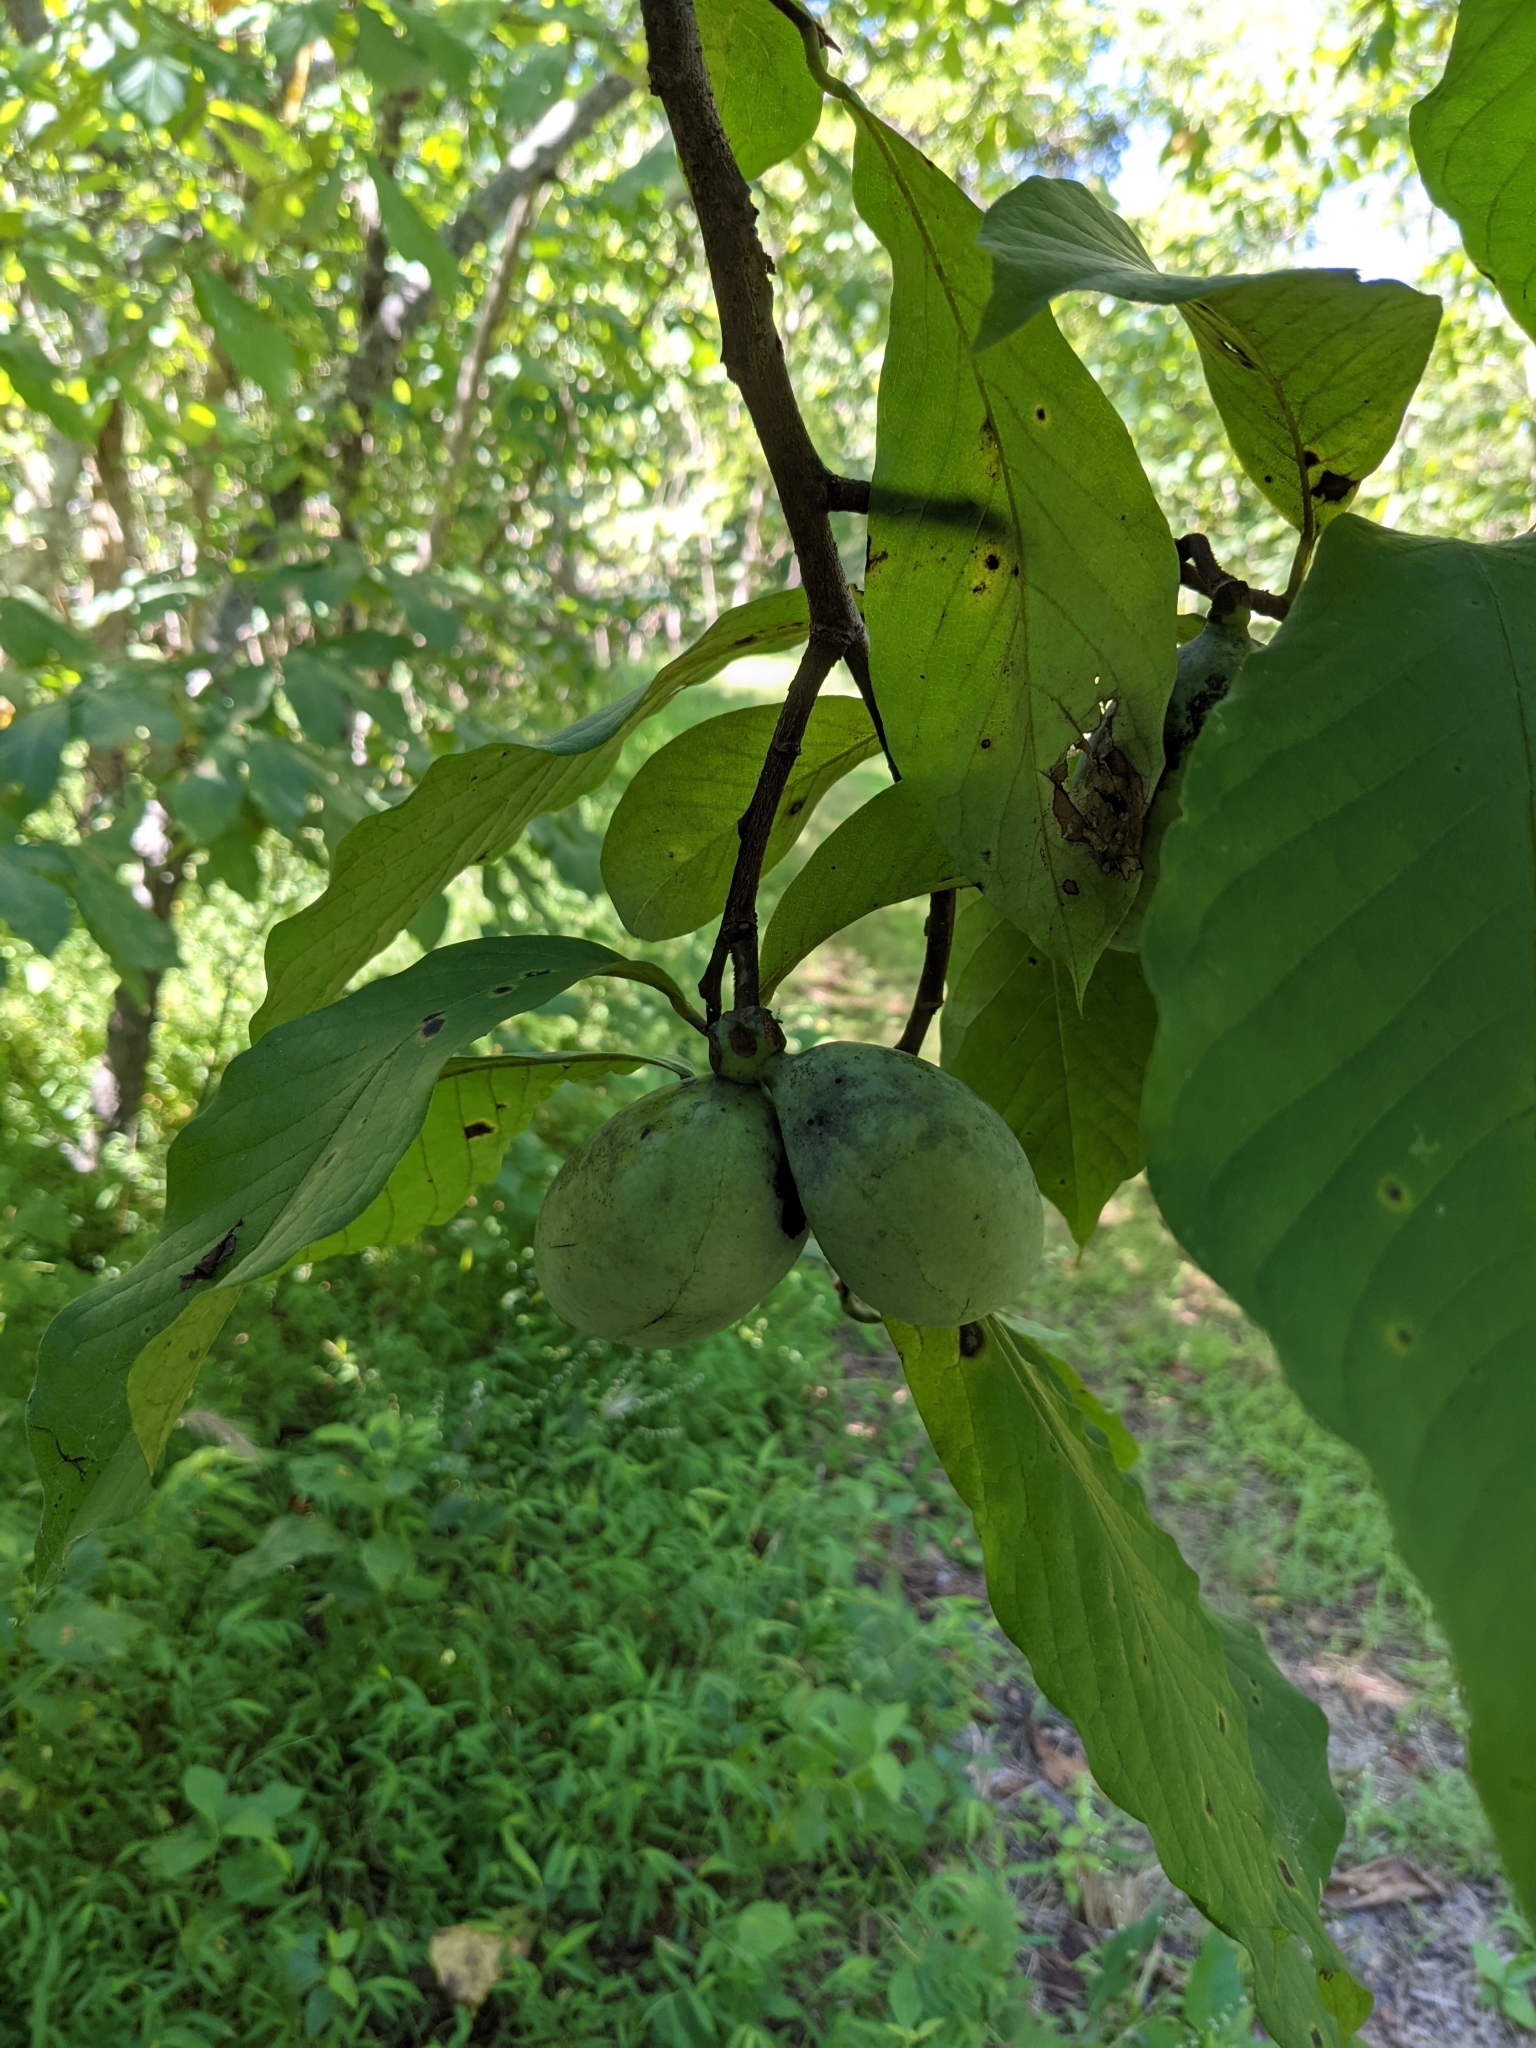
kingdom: Plantae
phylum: Tracheophyta
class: Magnoliopsida
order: Magnoliales
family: Annonaceae
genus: Asimina
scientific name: Asimina triloba
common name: Dog-banana
